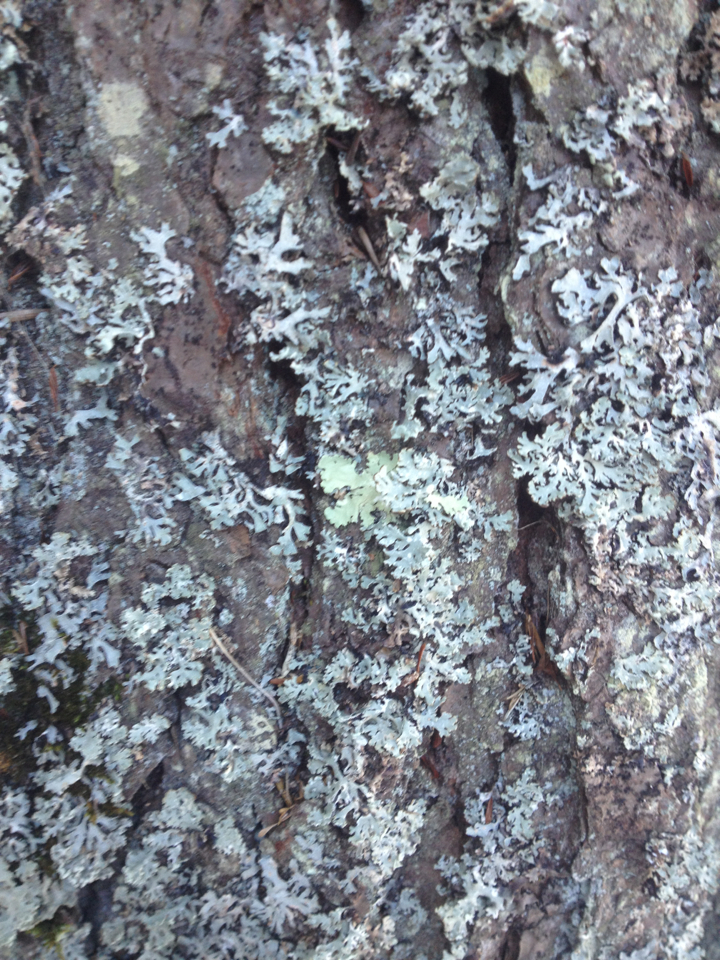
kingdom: Fungi
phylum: Ascomycota
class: Lecanoromycetes
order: Lecanorales
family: Parmeliaceae
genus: Parmelia
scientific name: Parmelia sulcata
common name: Netted shield lichen
